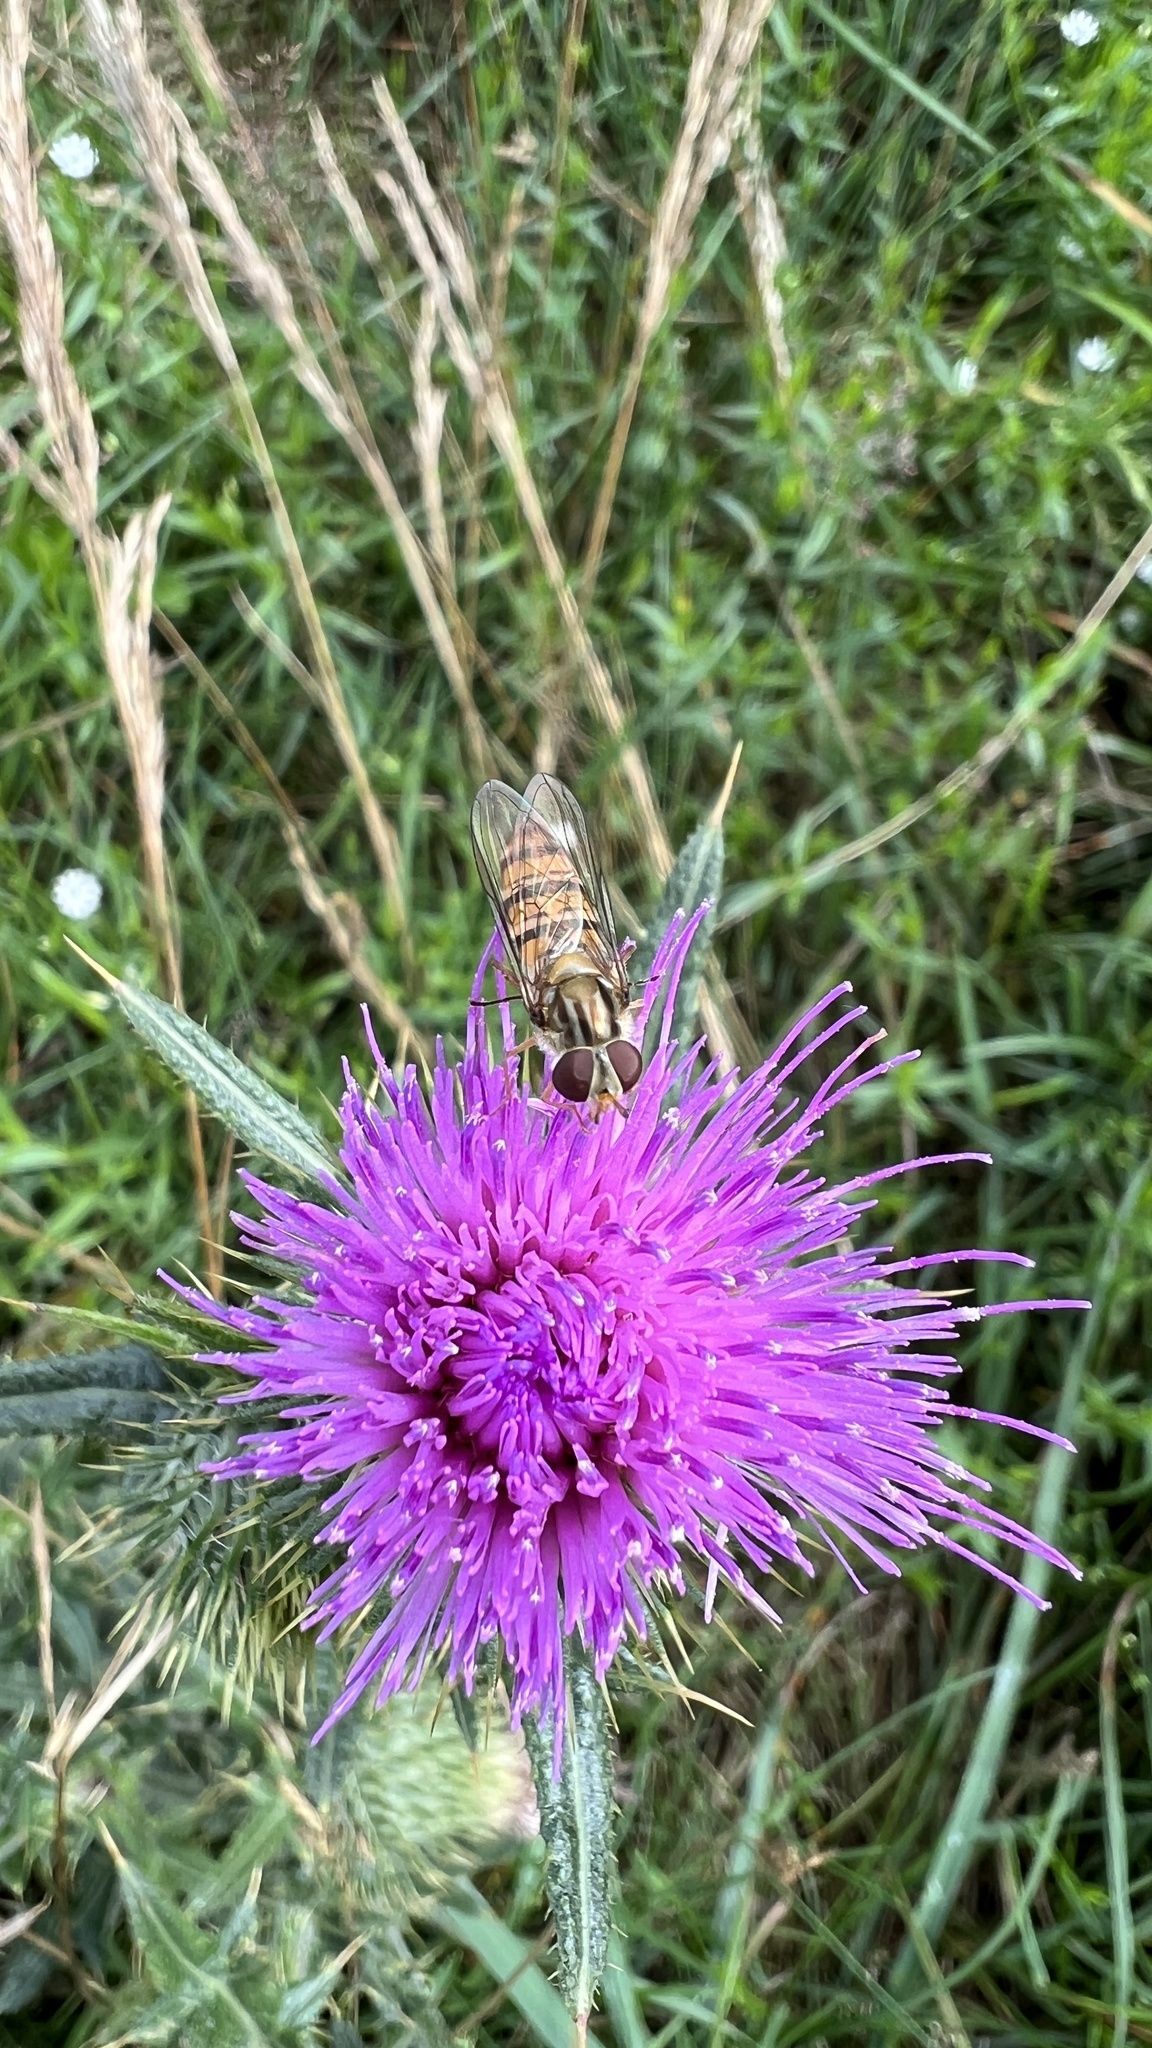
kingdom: Animalia
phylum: Arthropoda
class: Insecta
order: Diptera
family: Syrphidae
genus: Episyrphus
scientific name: Episyrphus balteatus
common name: Marmalade hoverfly
